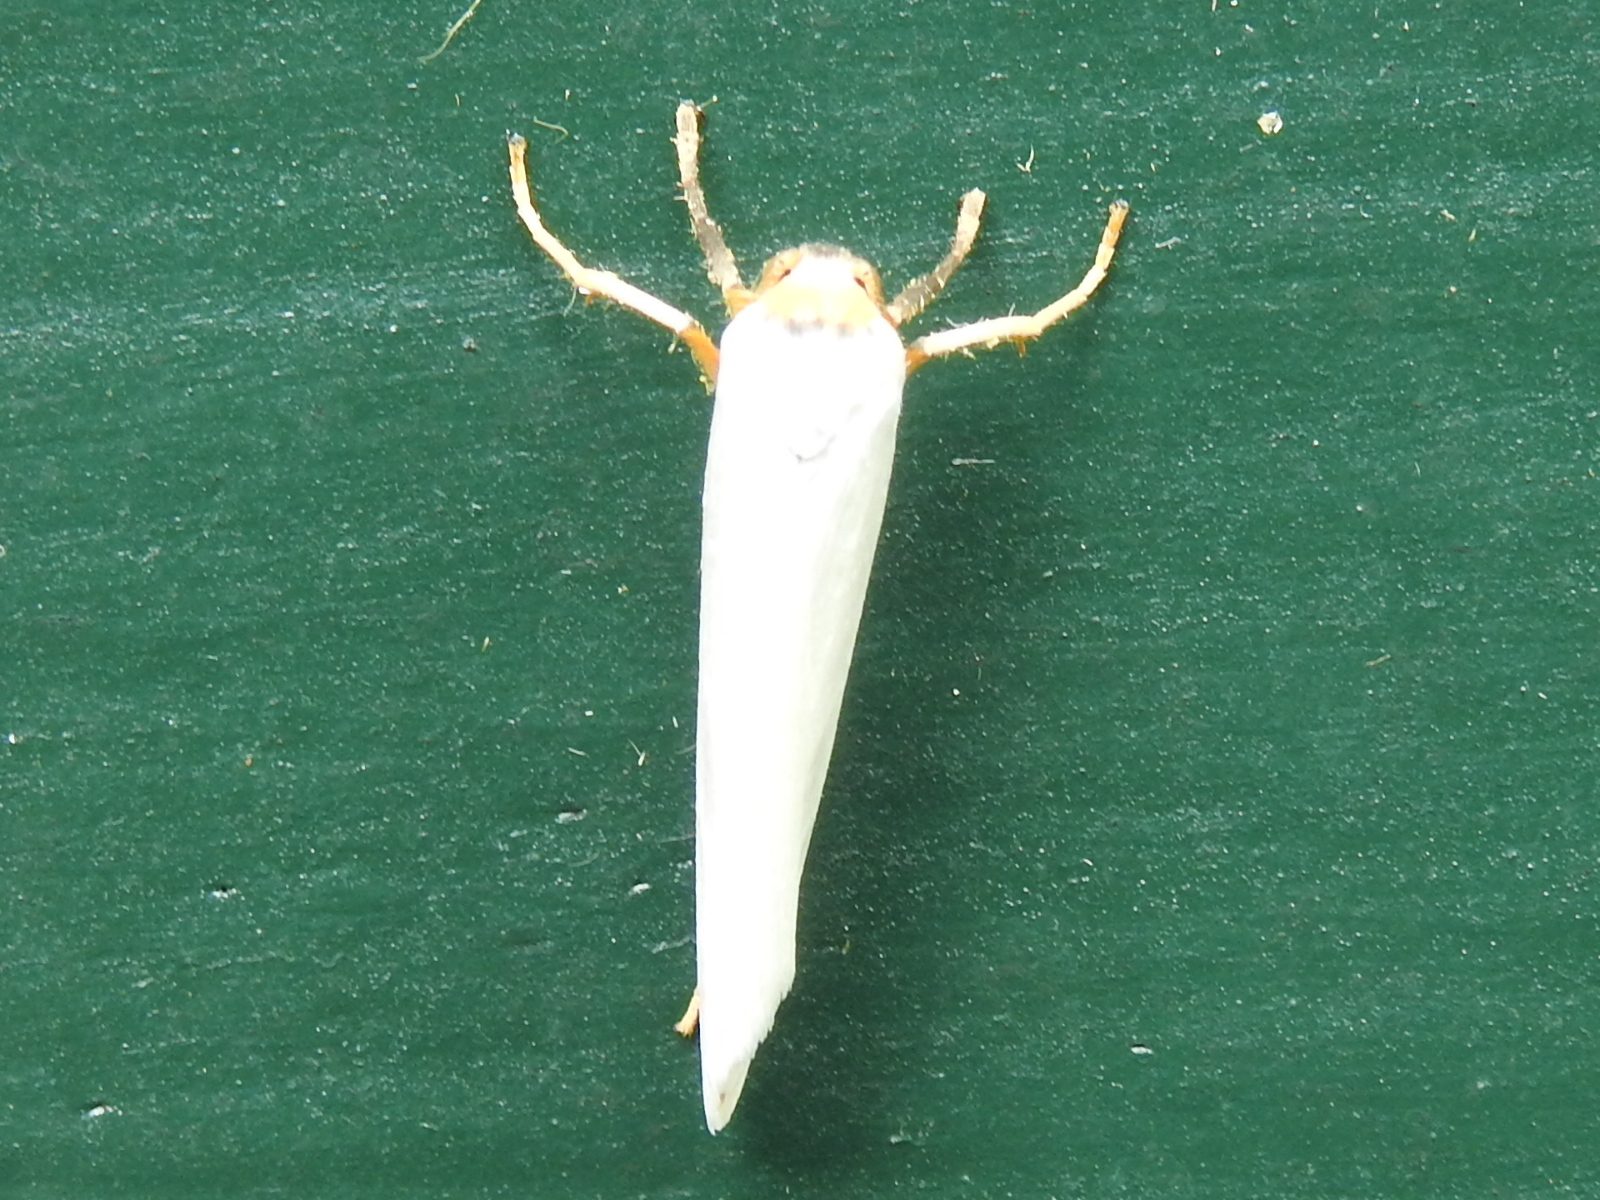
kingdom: Animalia
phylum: Arthropoda
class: Insecta
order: Lepidoptera
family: Erebidae
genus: Pygarctia
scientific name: Pygarctia roseicapitis
